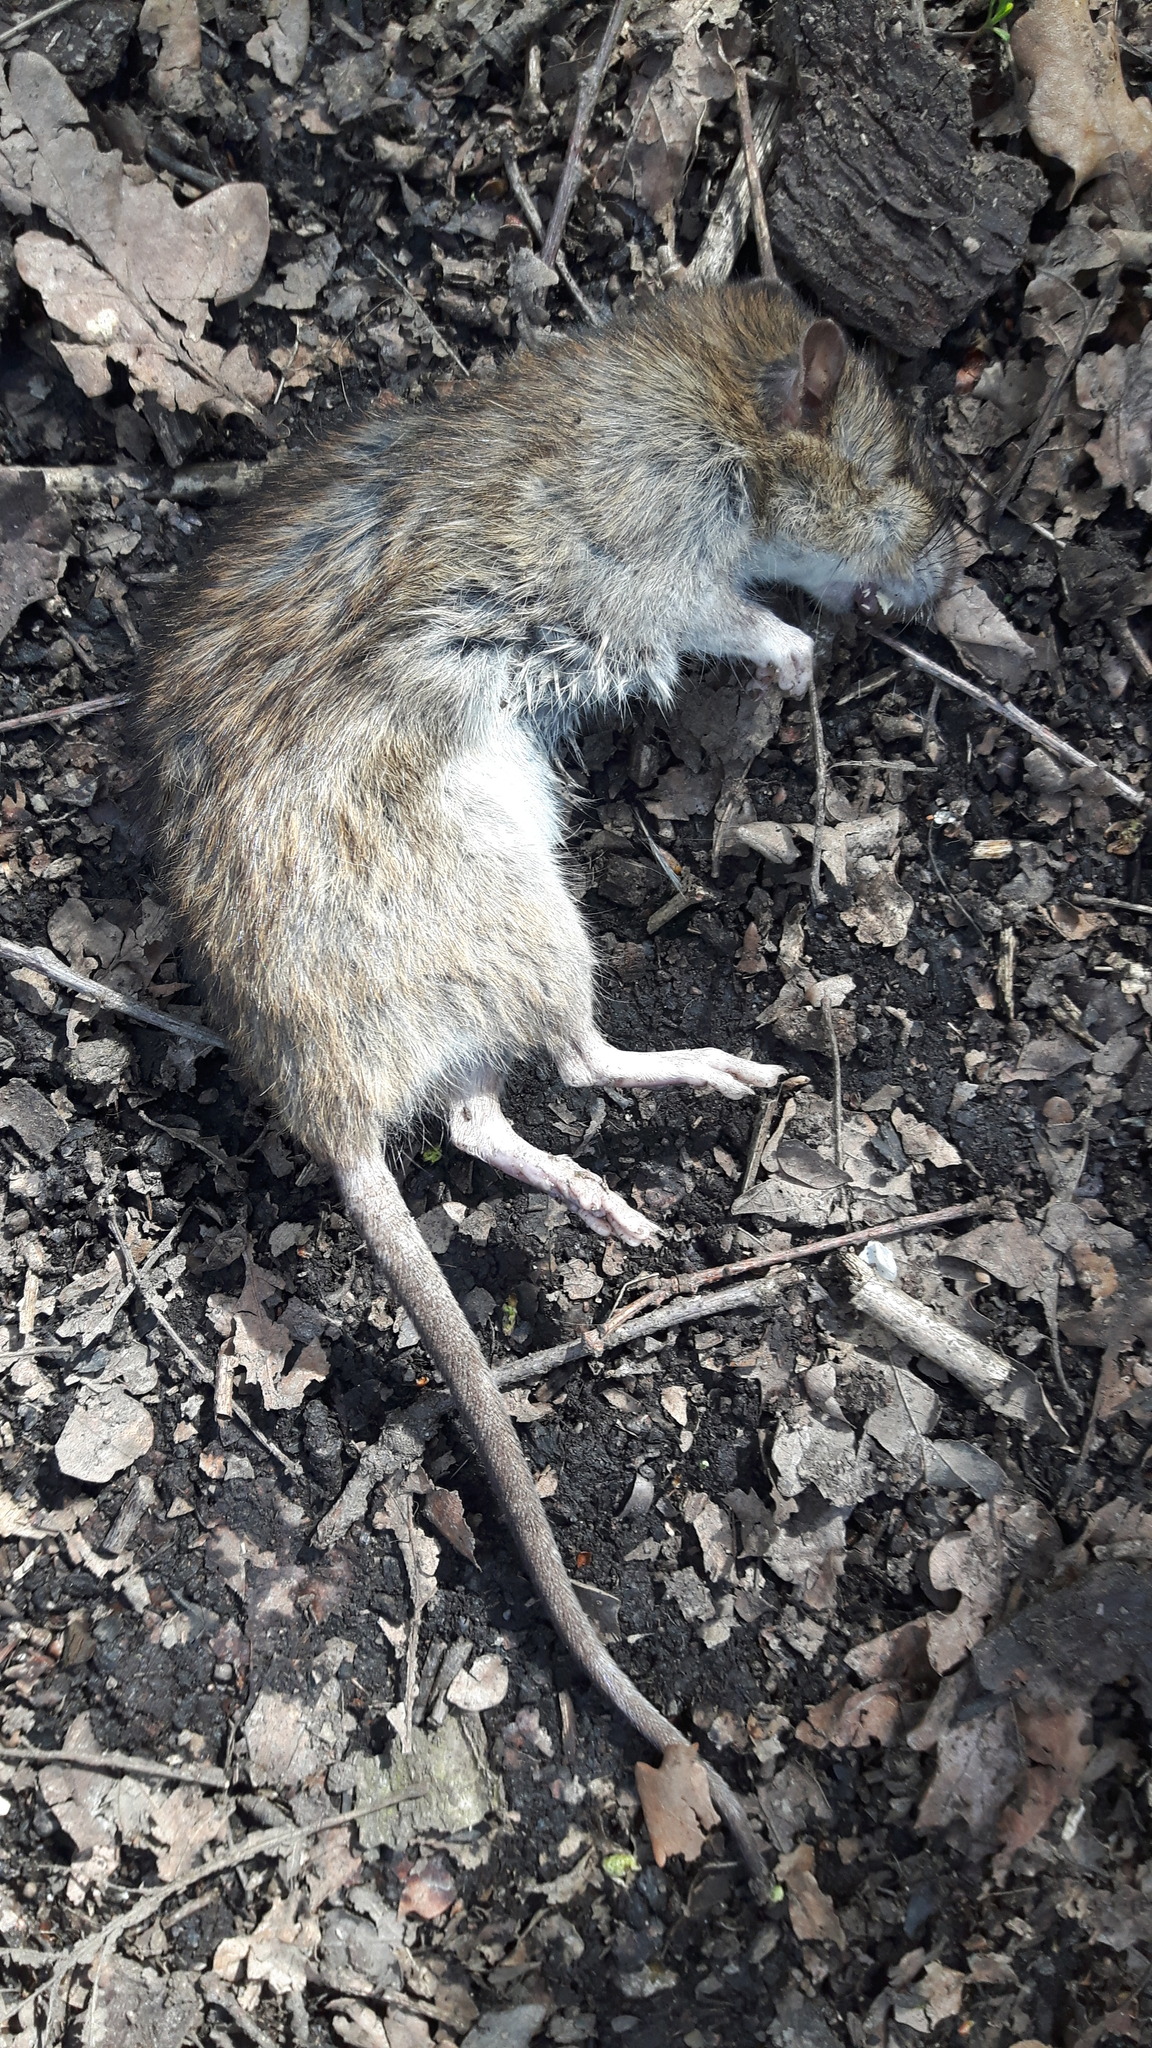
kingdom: Animalia
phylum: Chordata
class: Mammalia
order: Rodentia
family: Muridae
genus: Rattus
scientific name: Rattus norvegicus
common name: Brown rat
